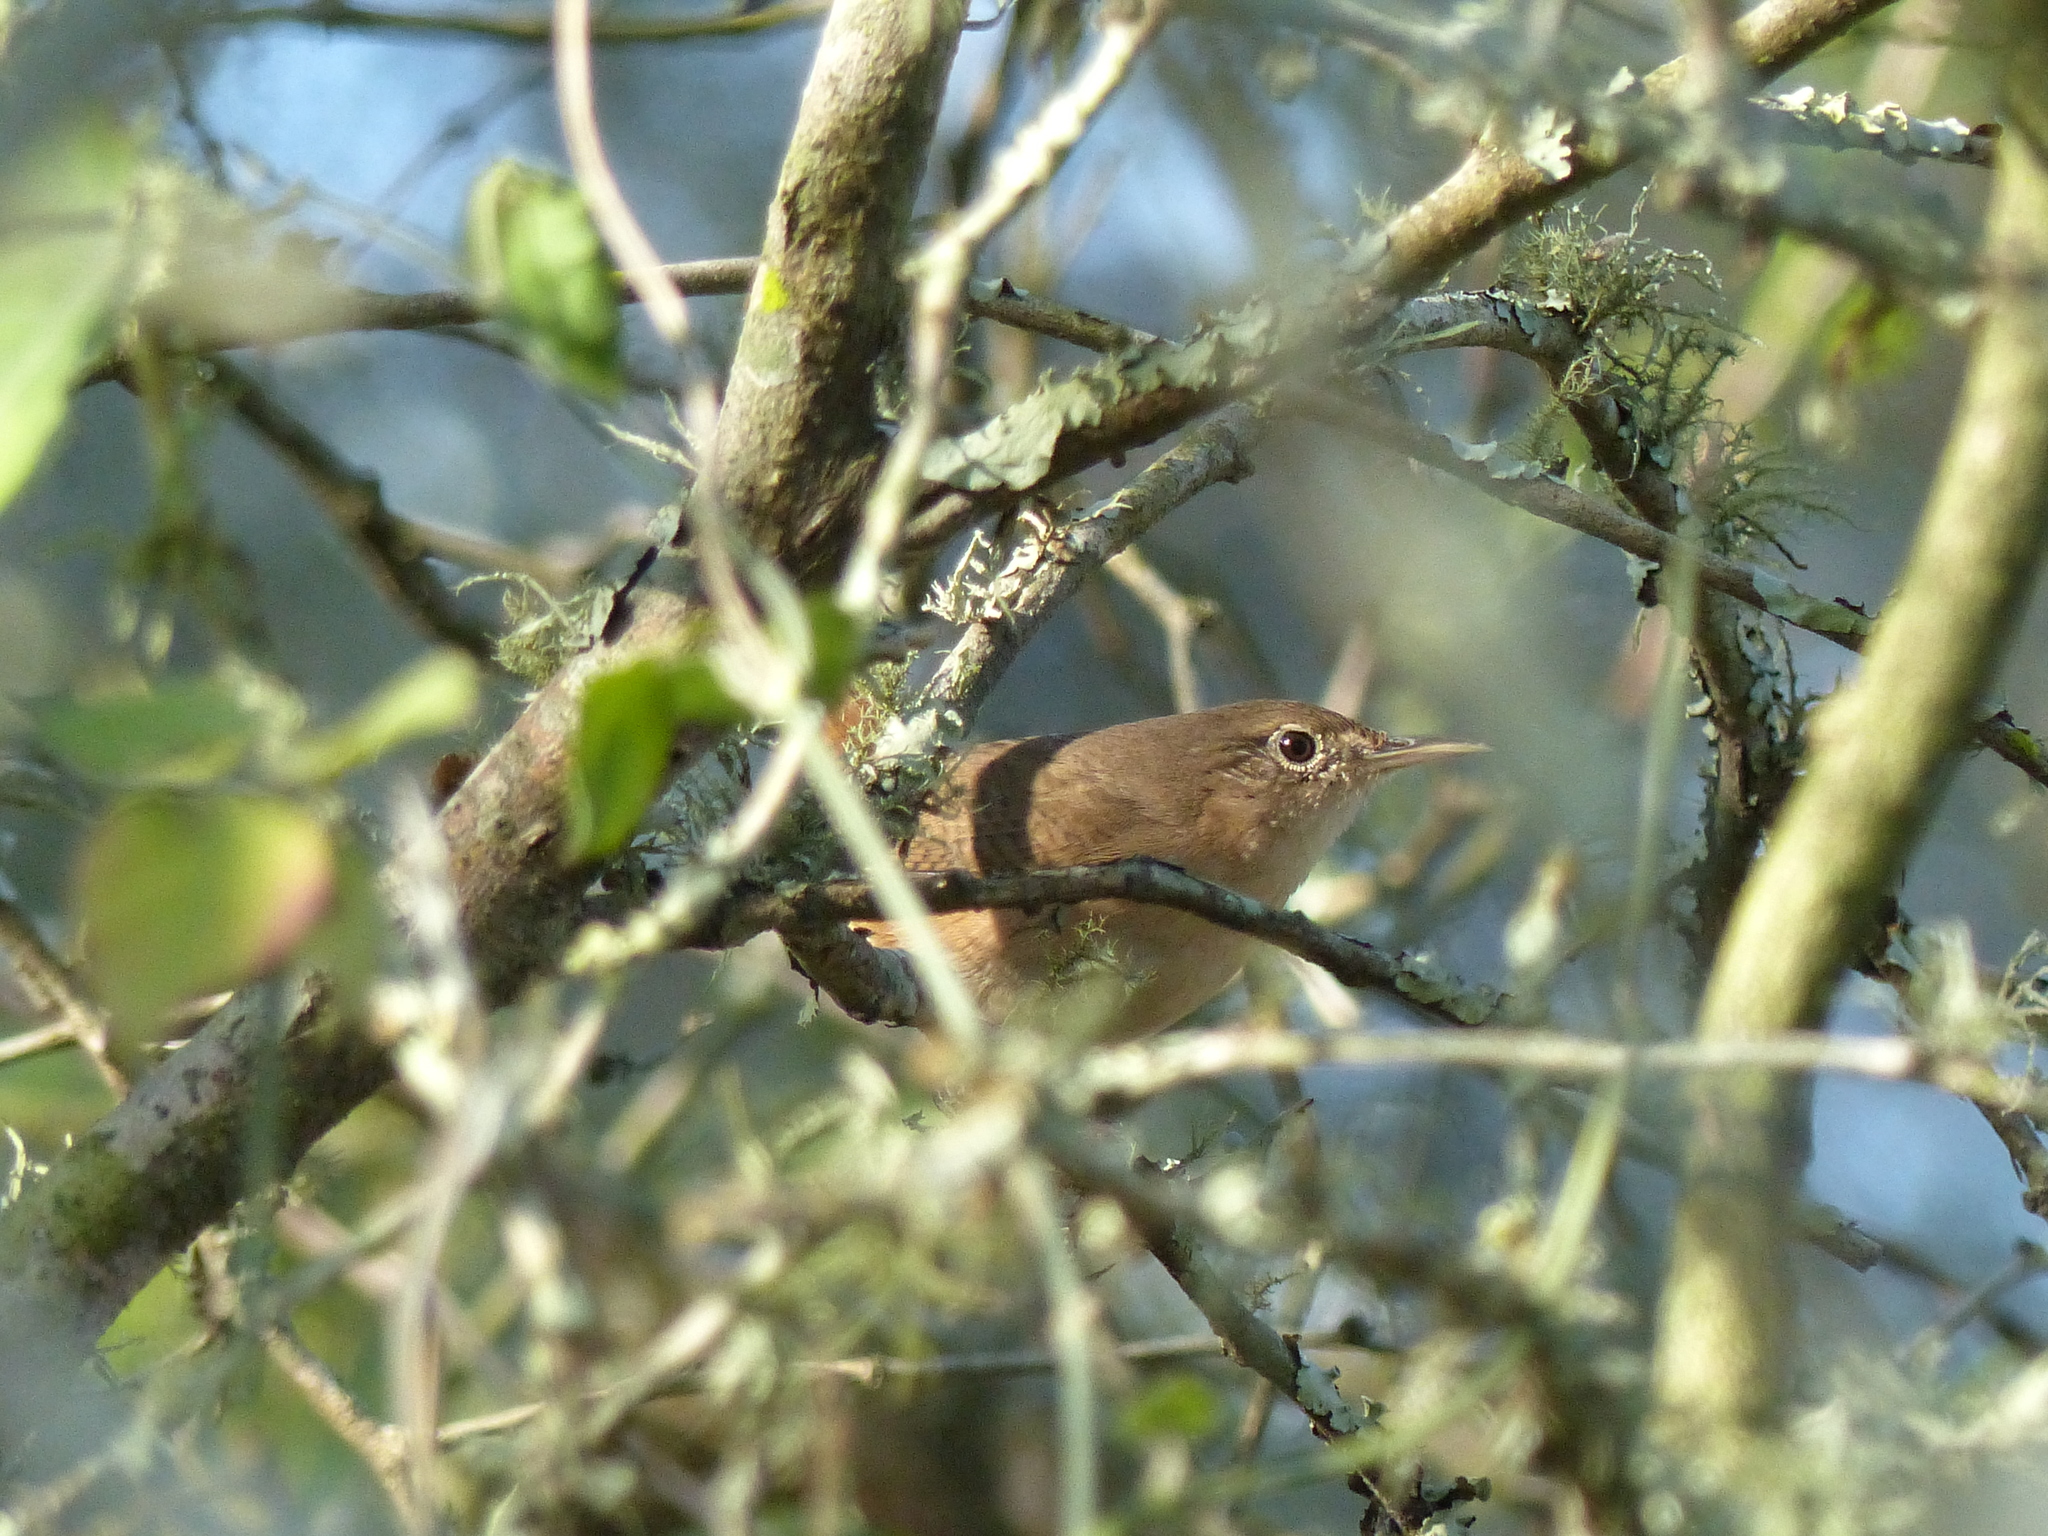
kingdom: Animalia
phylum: Chordata
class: Aves
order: Passeriformes
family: Troglodytidae
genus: Troglodytes
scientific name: Troglodytes aedon
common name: House wren
